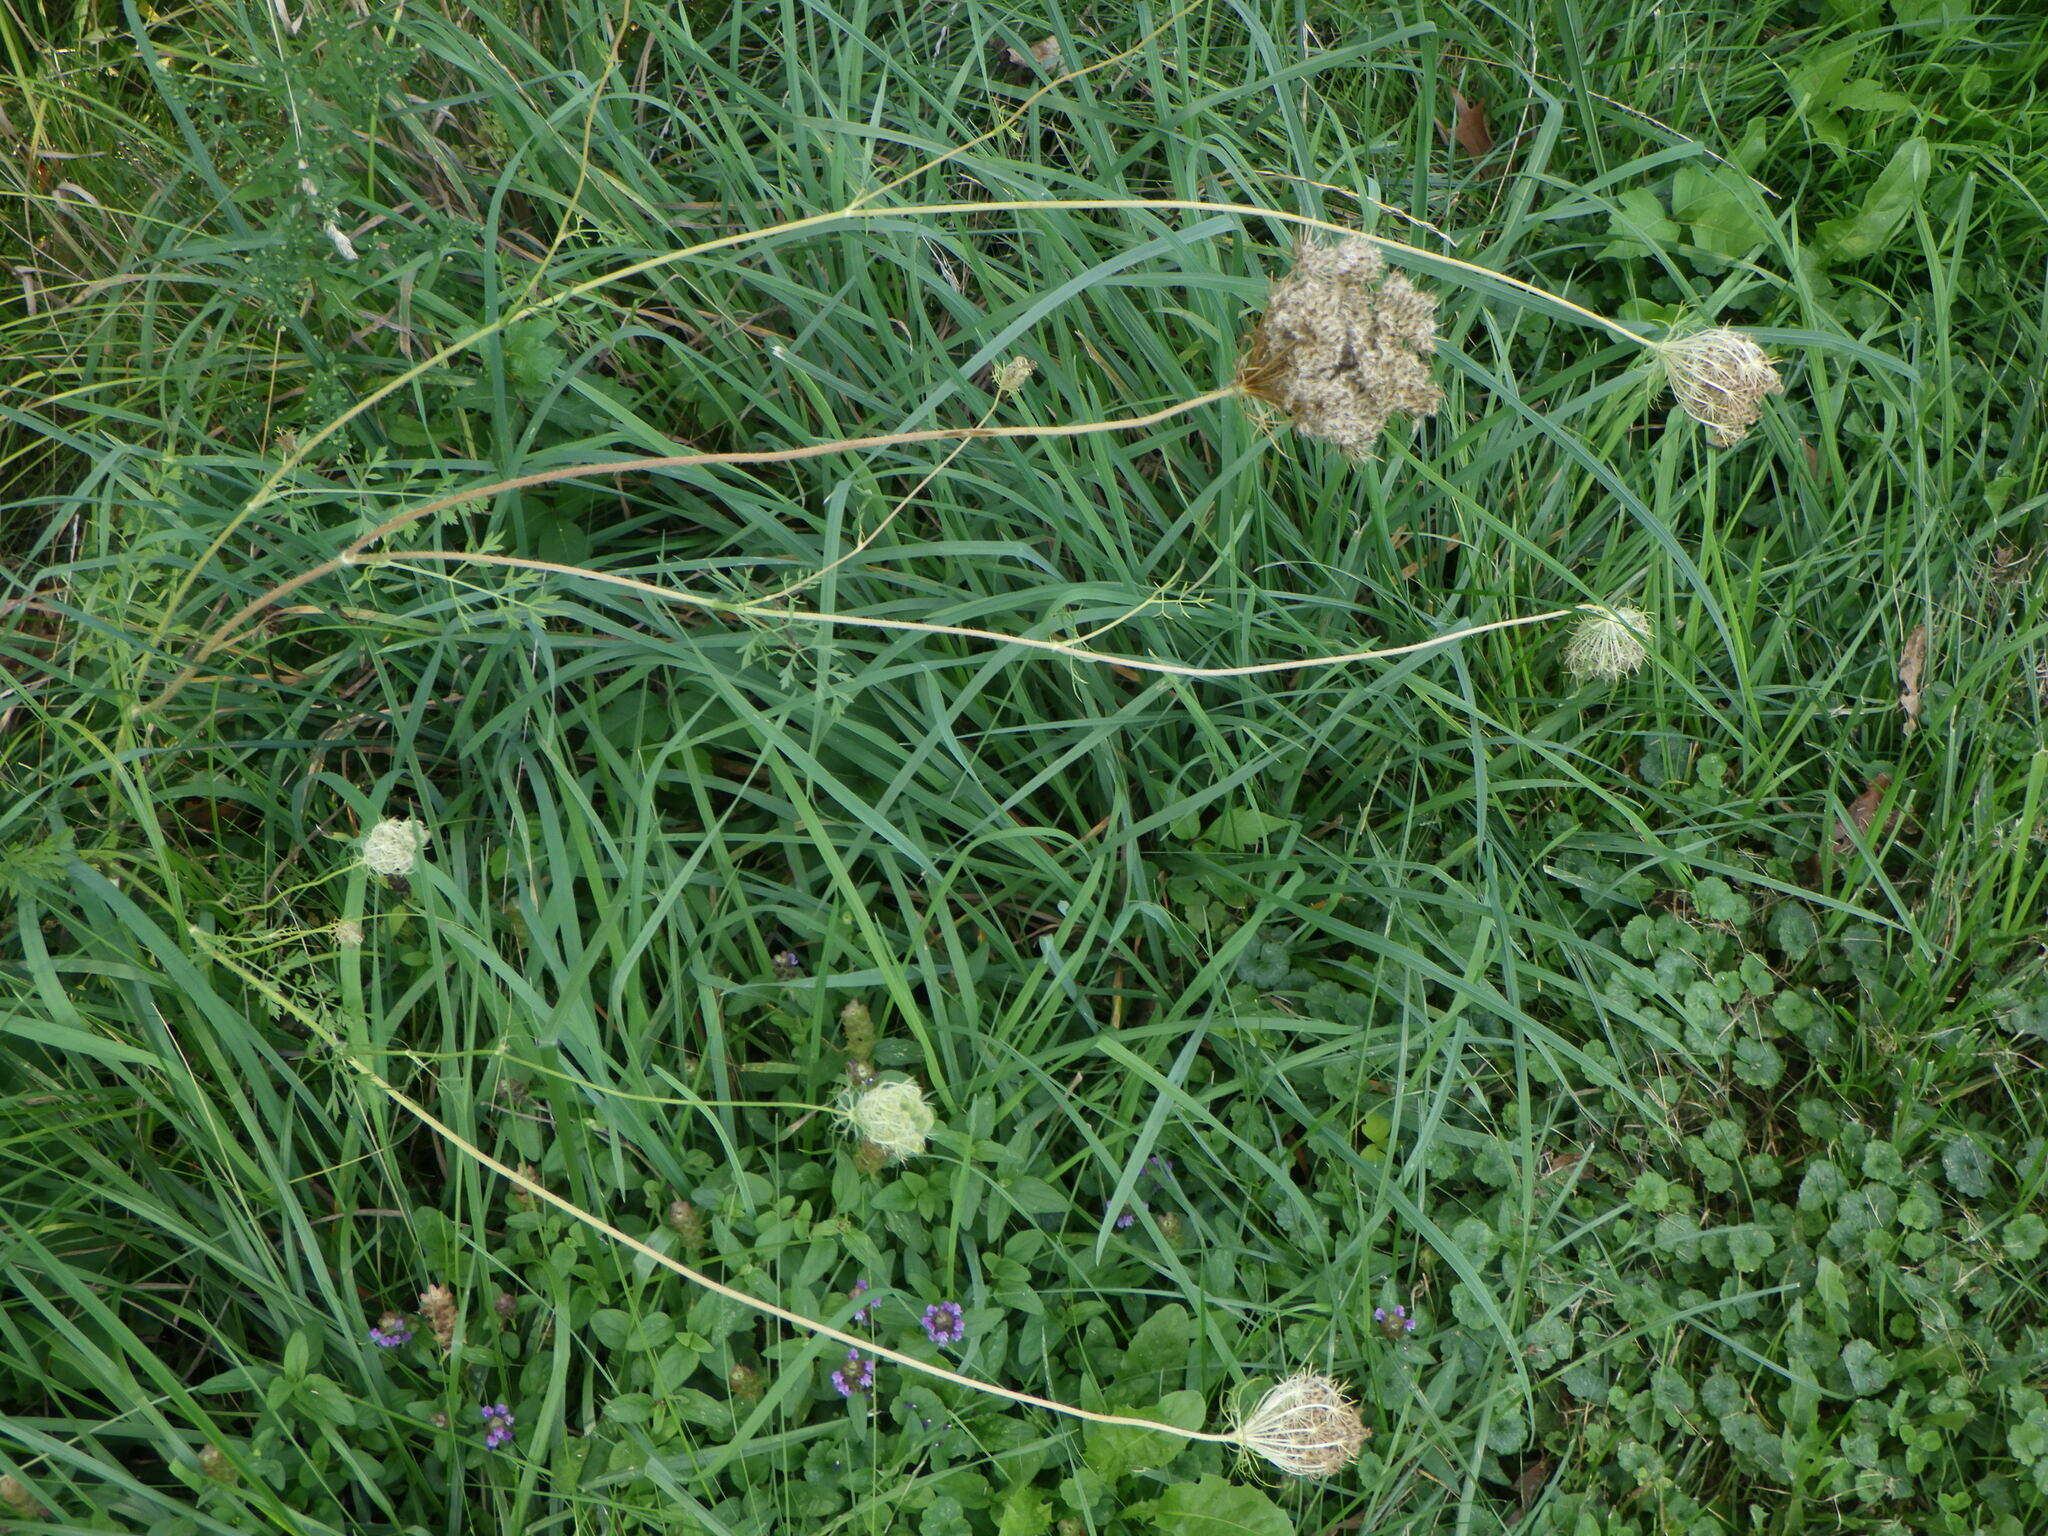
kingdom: Plantae
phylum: Tracheophyta
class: Magnoliopsida
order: Apiales
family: Apiaceae
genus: Daucus
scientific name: Daucus carota
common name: Wild carrot
